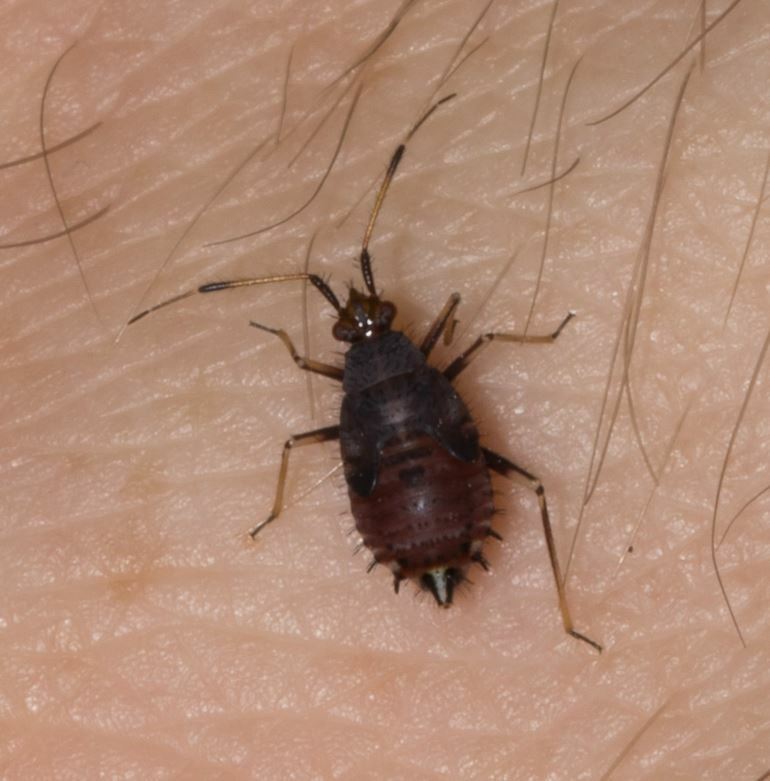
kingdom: Animalia
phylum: Arthropoda
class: Insecta
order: Hemiptera
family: Miridae
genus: Deraeocoris
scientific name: Deraeocoris ruber
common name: Plant bug
